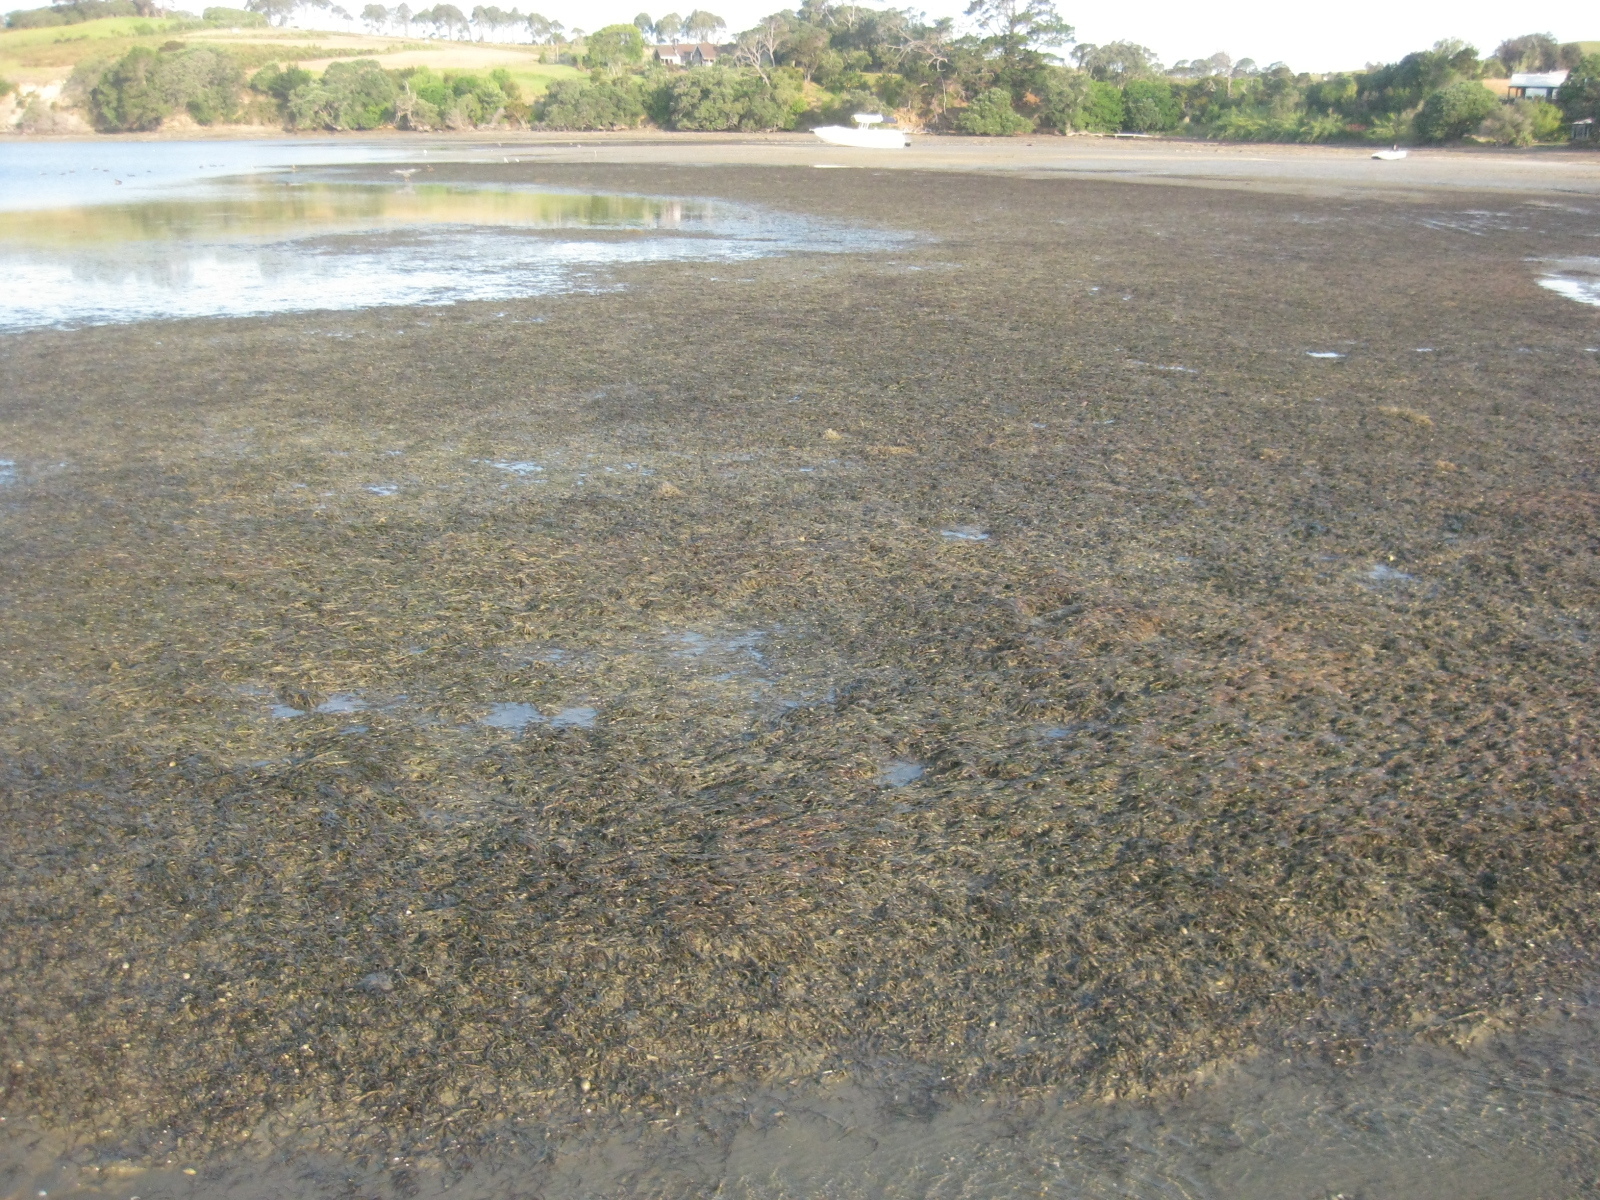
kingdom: Plantae
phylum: Tracheophyta
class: Liliopsida
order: Alismatales
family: Zosteraceae
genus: Zostera
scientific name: Zostera novazelandica
